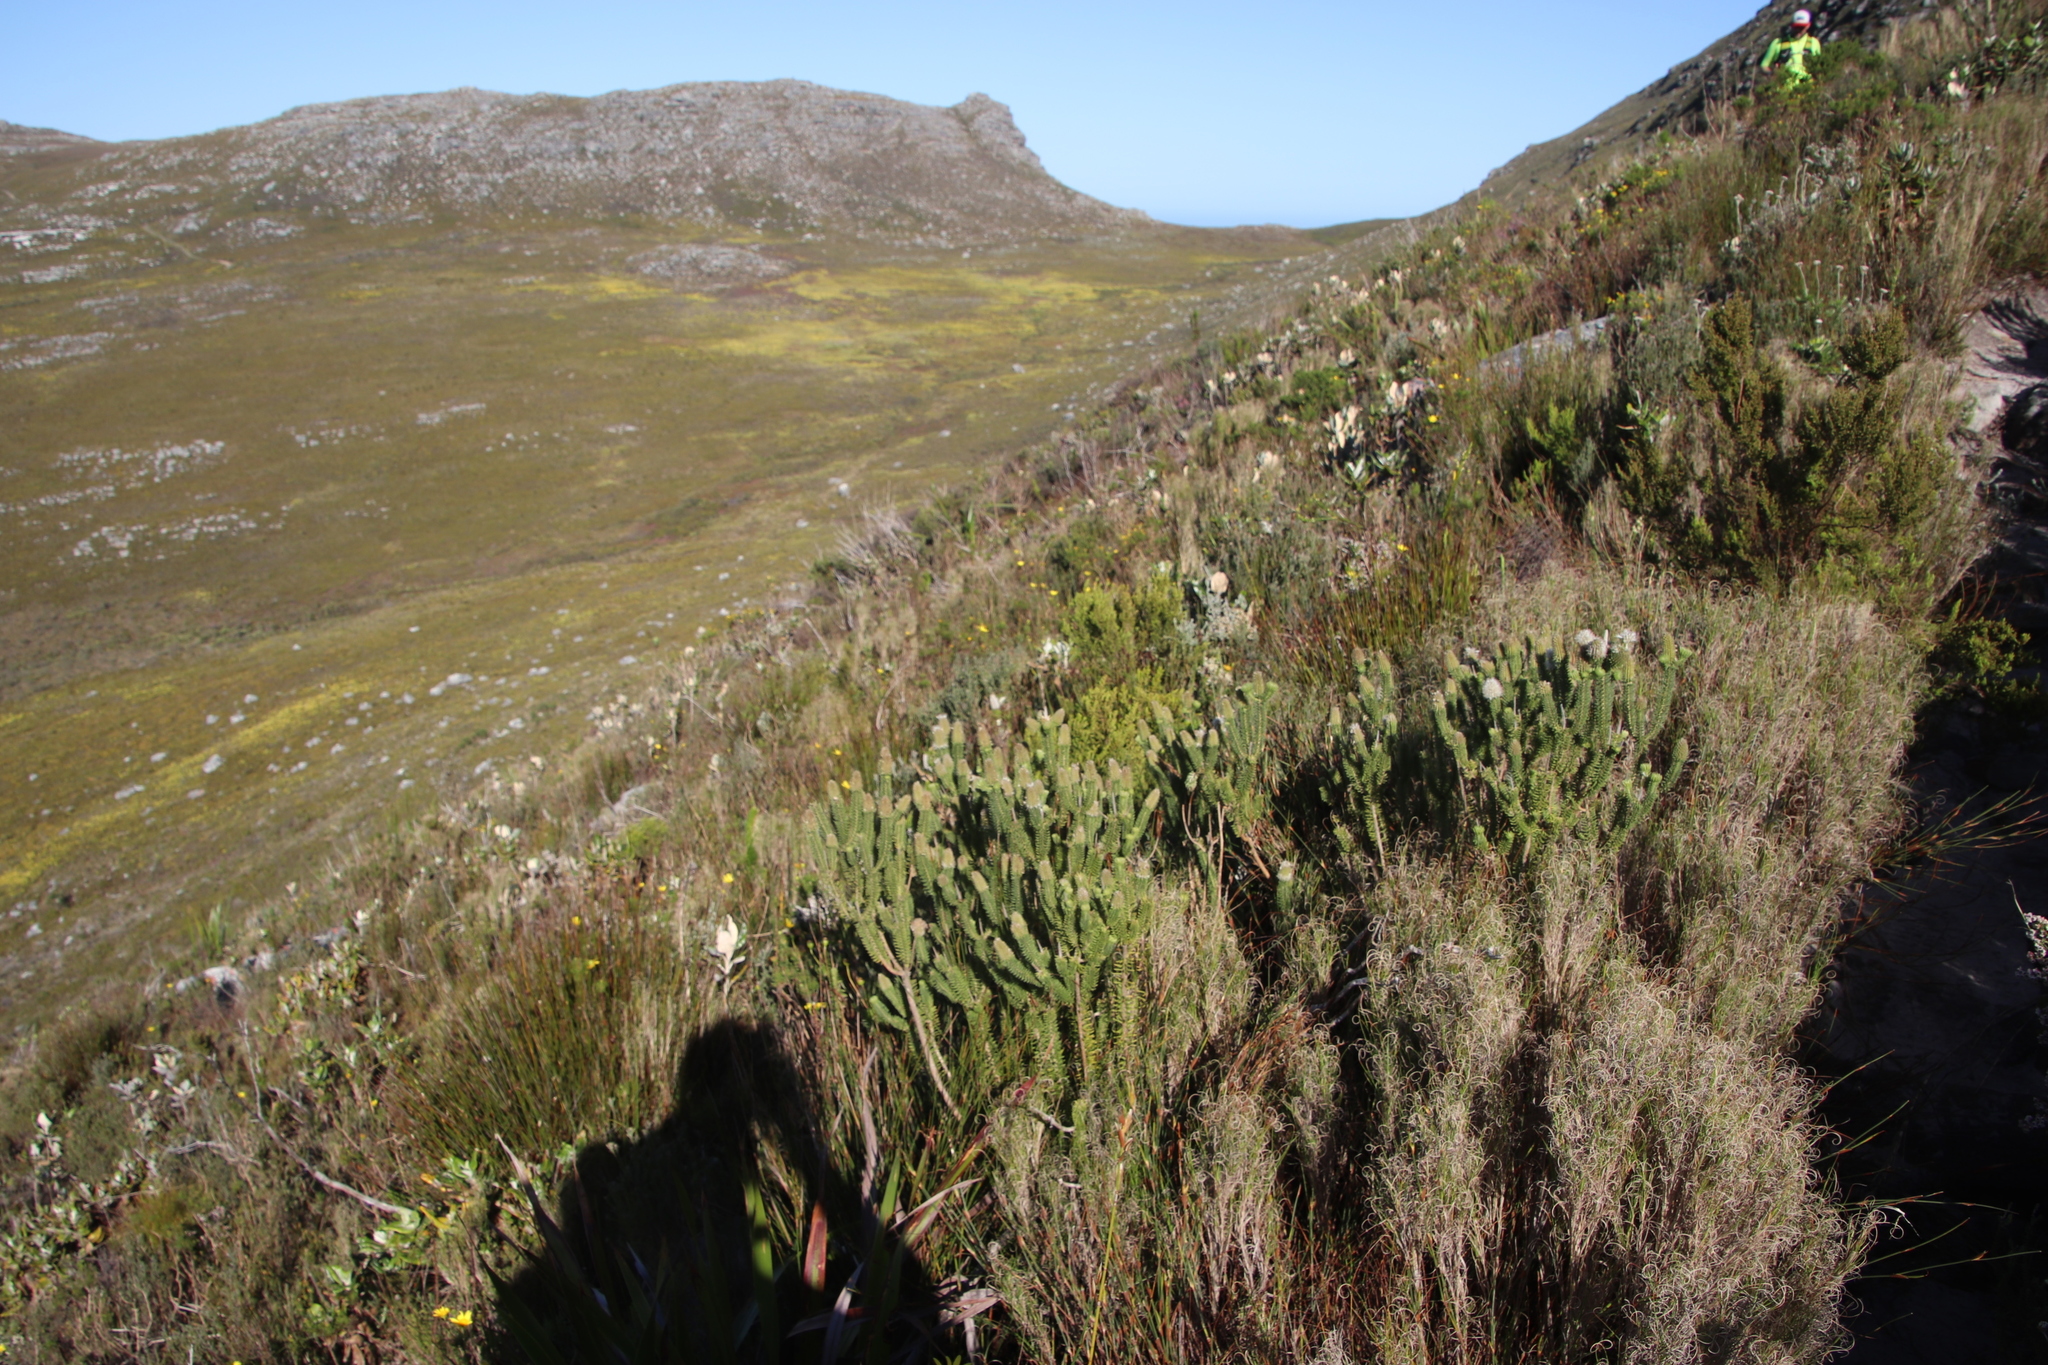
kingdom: Plantae
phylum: Tracheophyta
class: Magnoliopsida
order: Lamiales
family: Stilbaceae
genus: Stilbe
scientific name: Stilbe vestita
